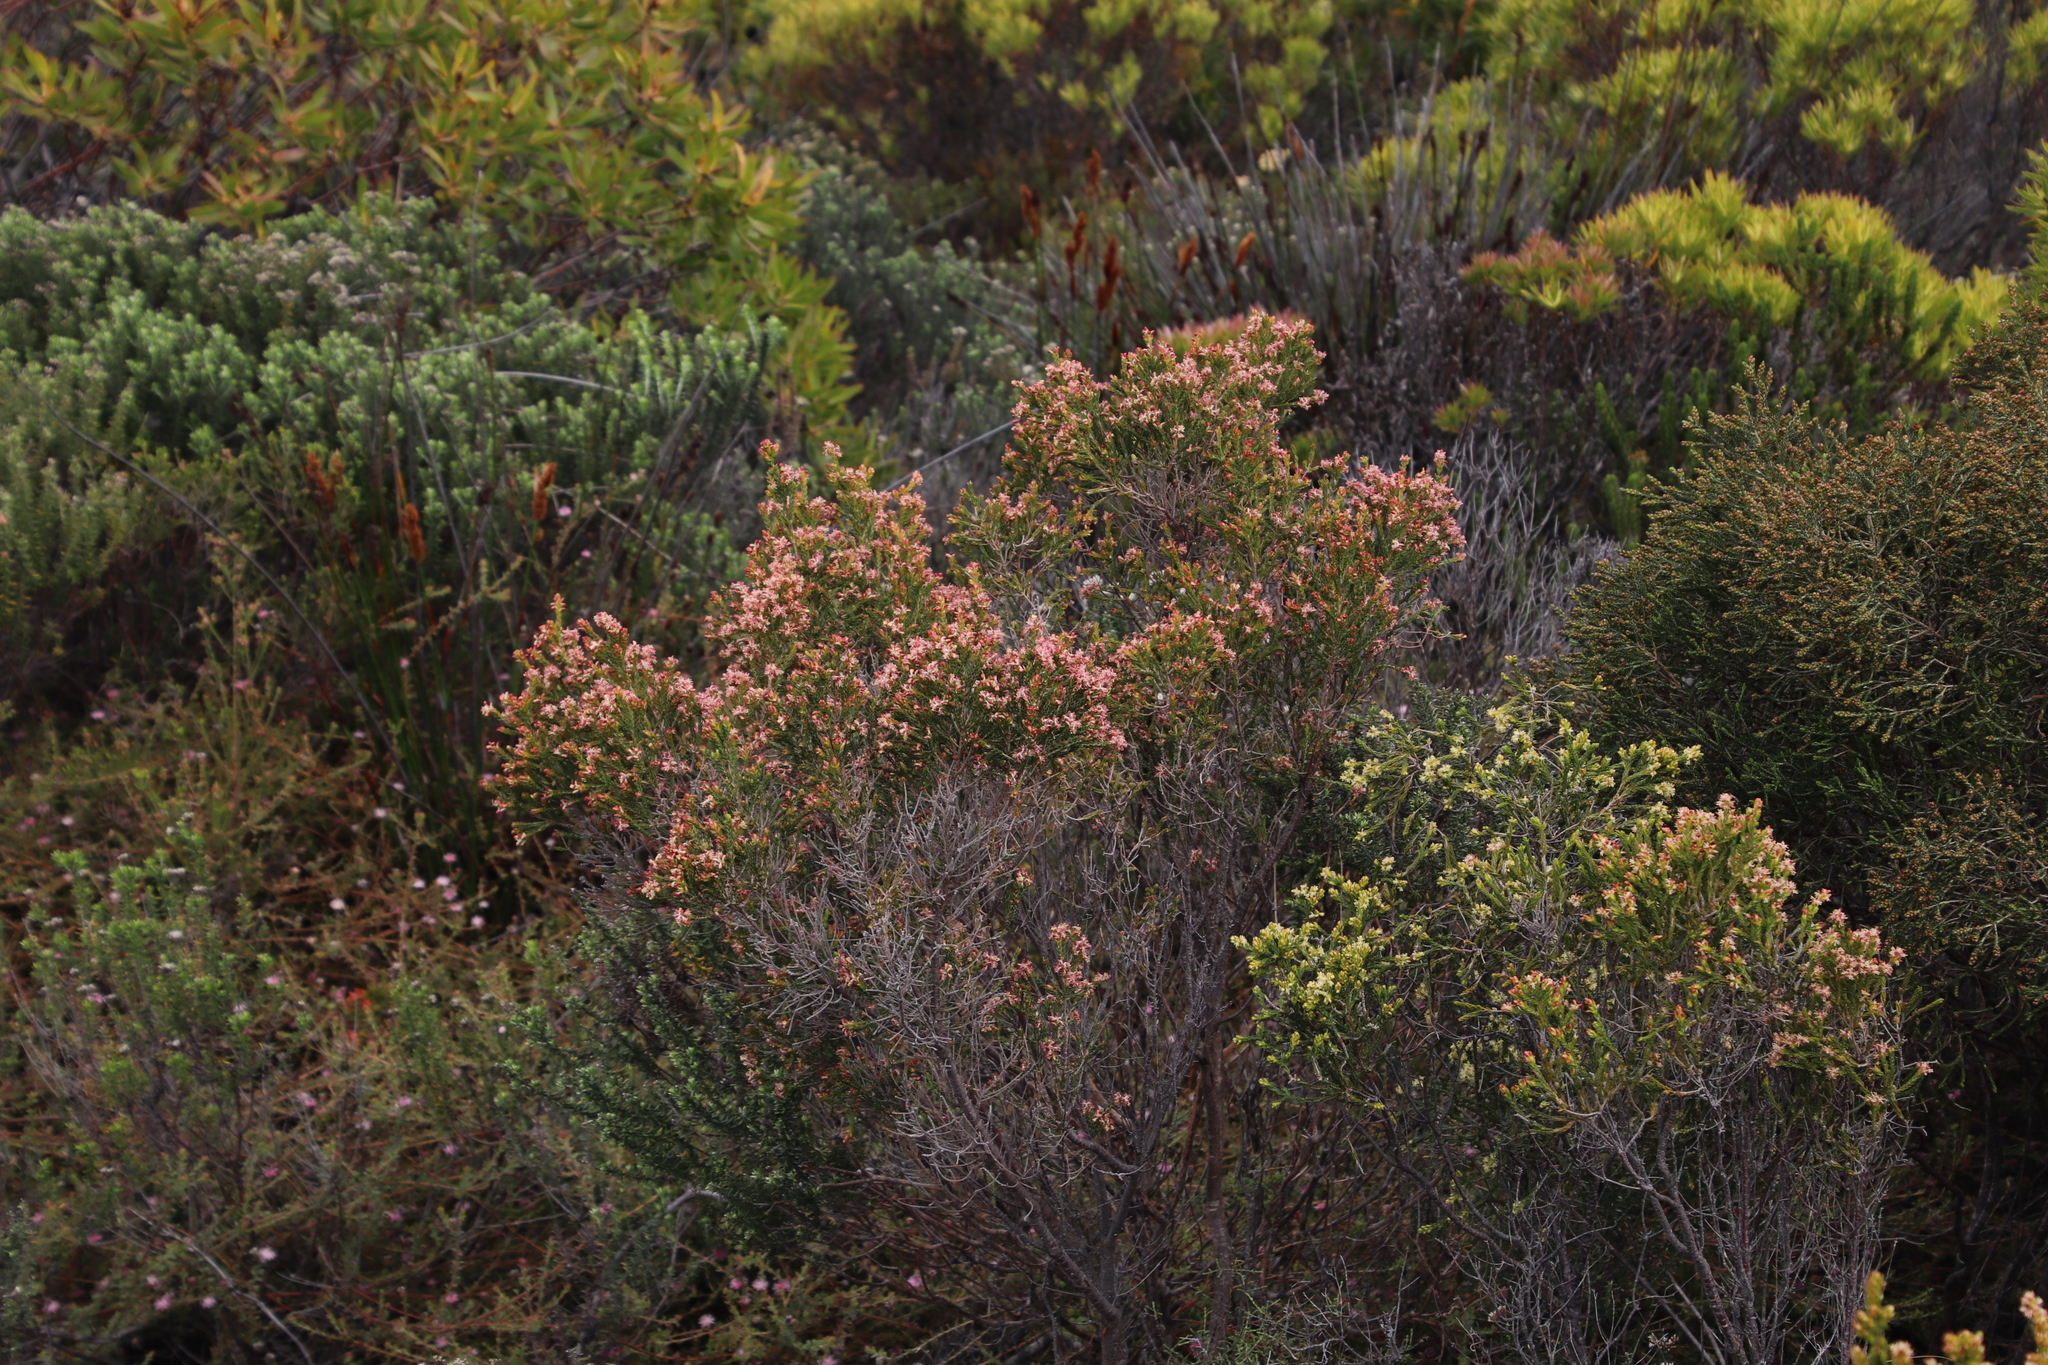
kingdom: Plantae
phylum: Tracheophyta
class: Magnoliopsida
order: Malvales
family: Thymelaeaceae
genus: Passerina
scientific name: Passerina corymbosa
